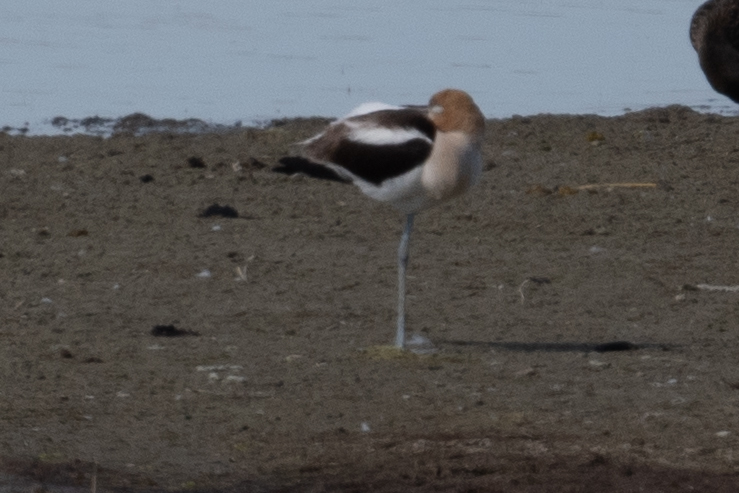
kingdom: Animalia
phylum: Chordata
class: Aves
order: Charadriiformes
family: Recurvirostridae
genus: Recurvirostra
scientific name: Recurvirostra americana
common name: American avocet
